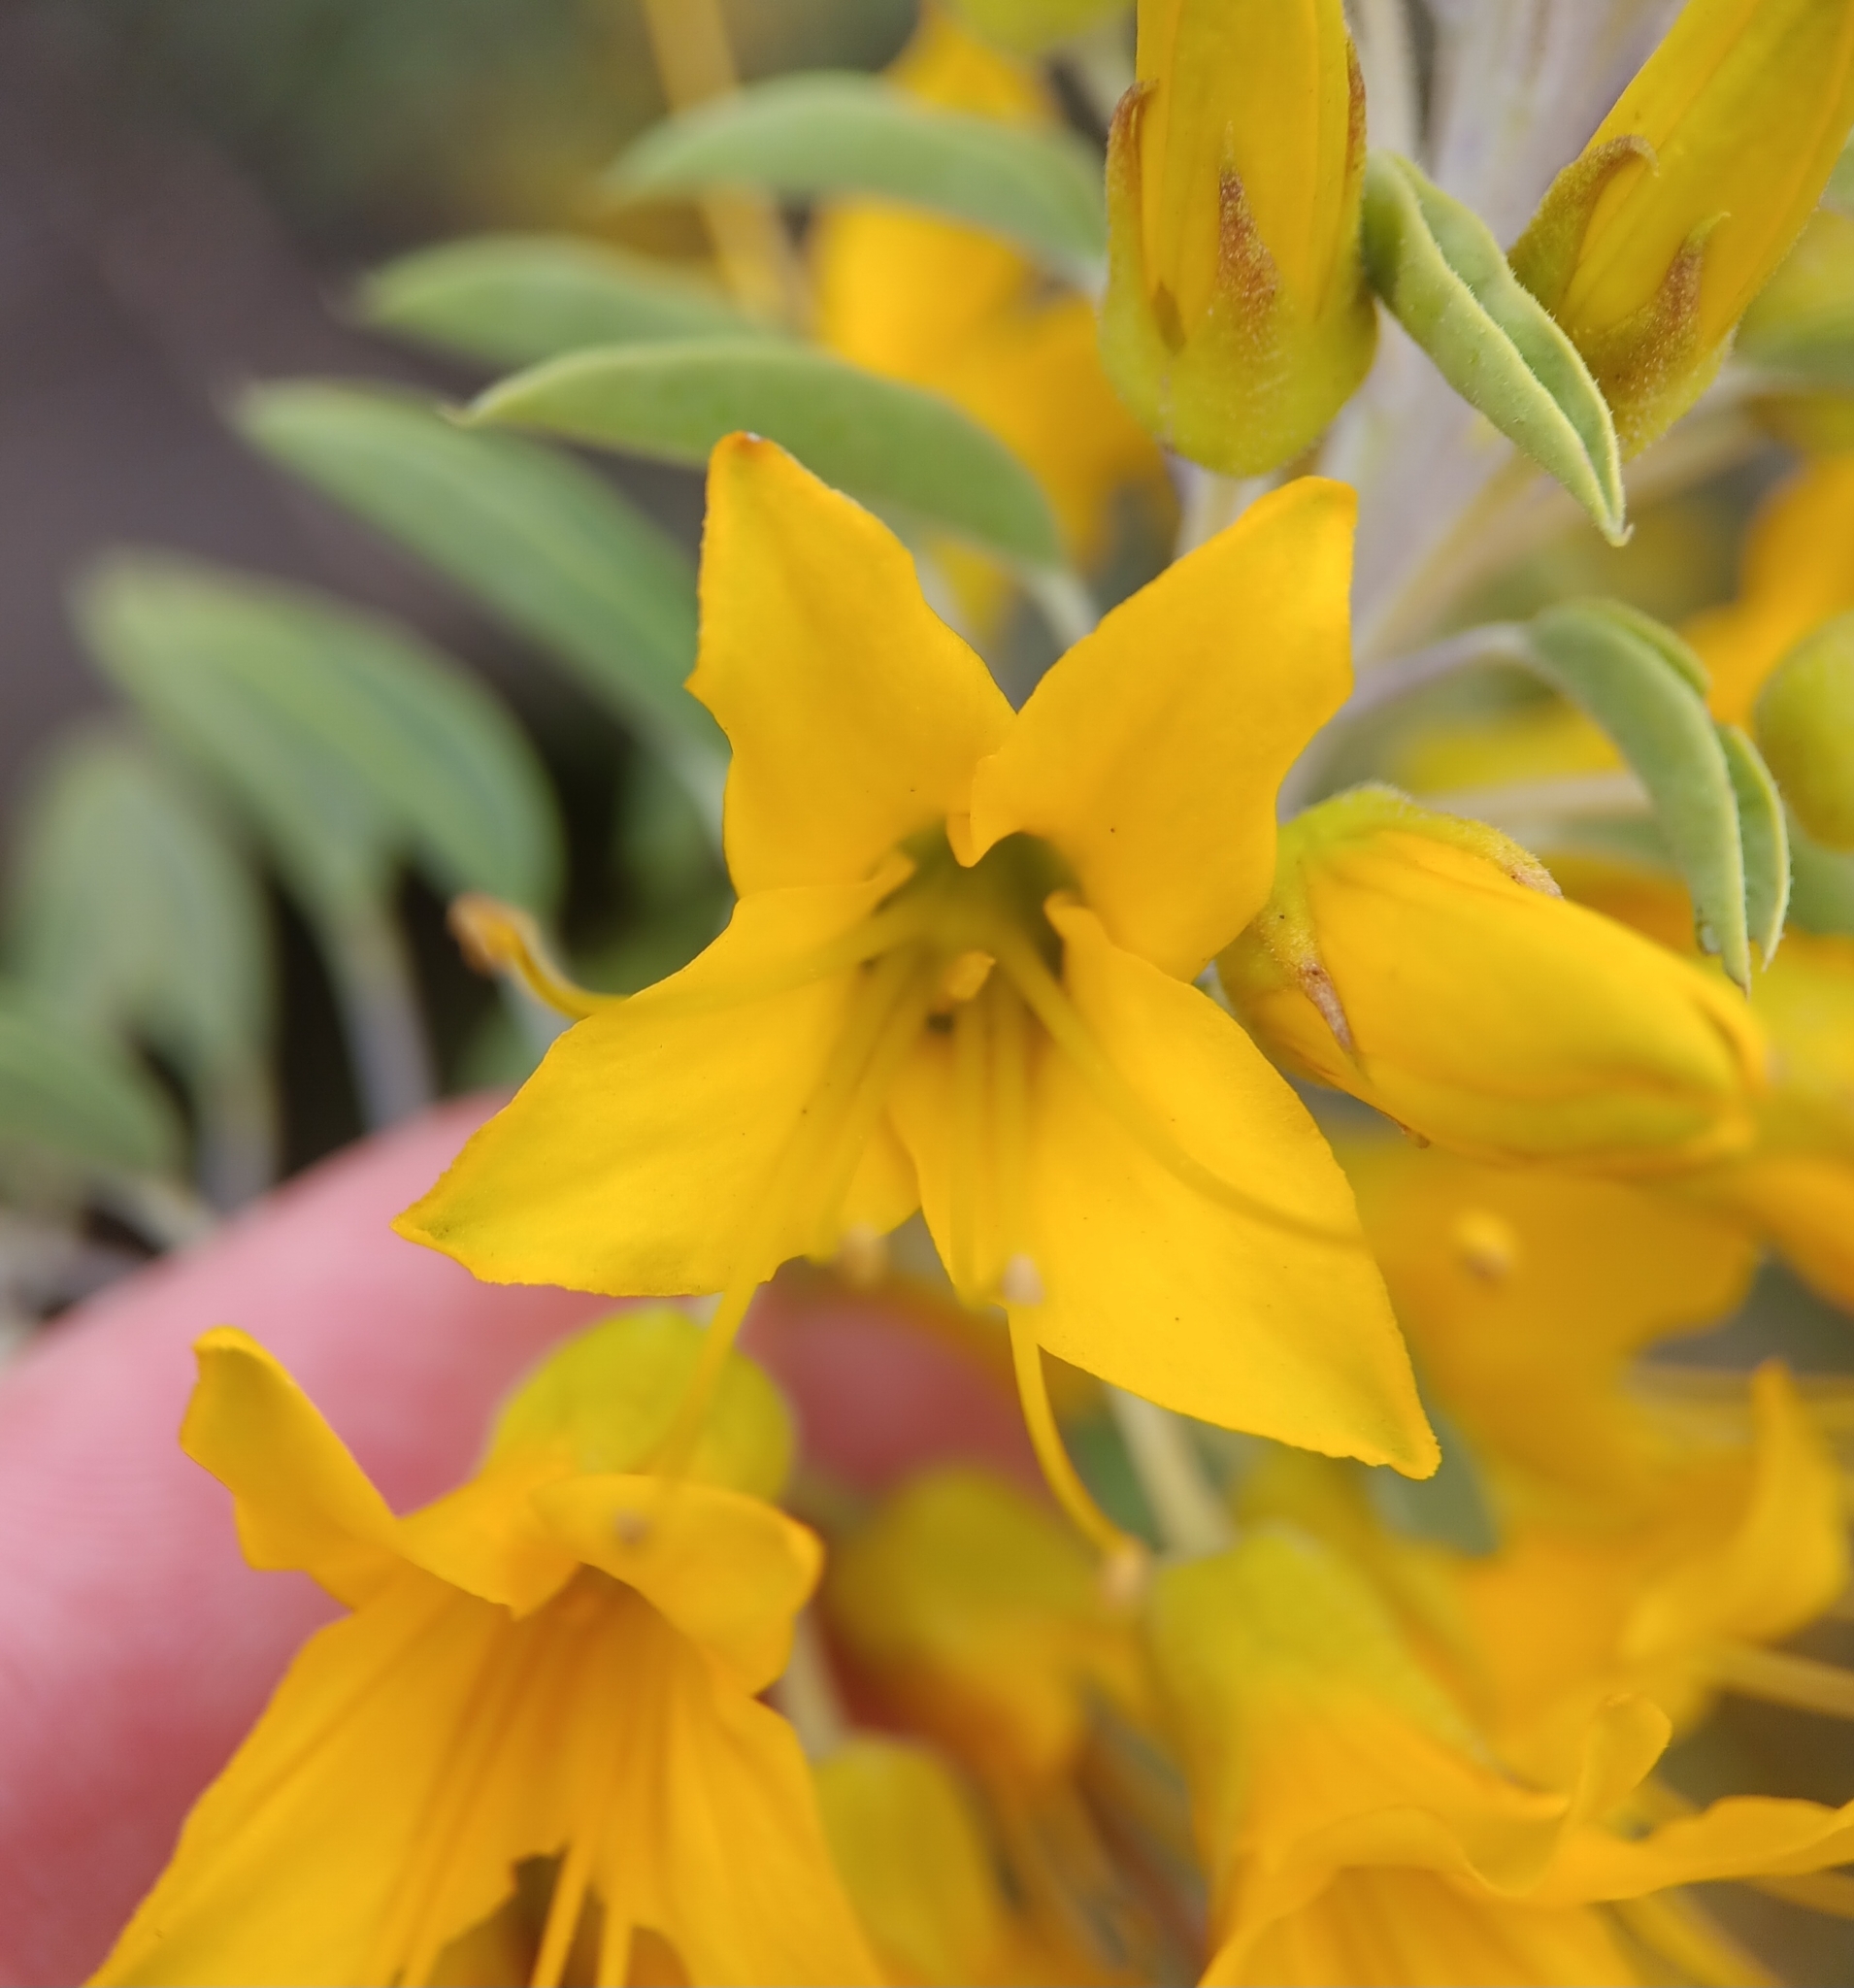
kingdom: Plantae
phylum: Tracheophyta
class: Magnoliopsida
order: Brassicales
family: Cleomaceae
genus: Cleomella
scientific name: Cleomella arborea
